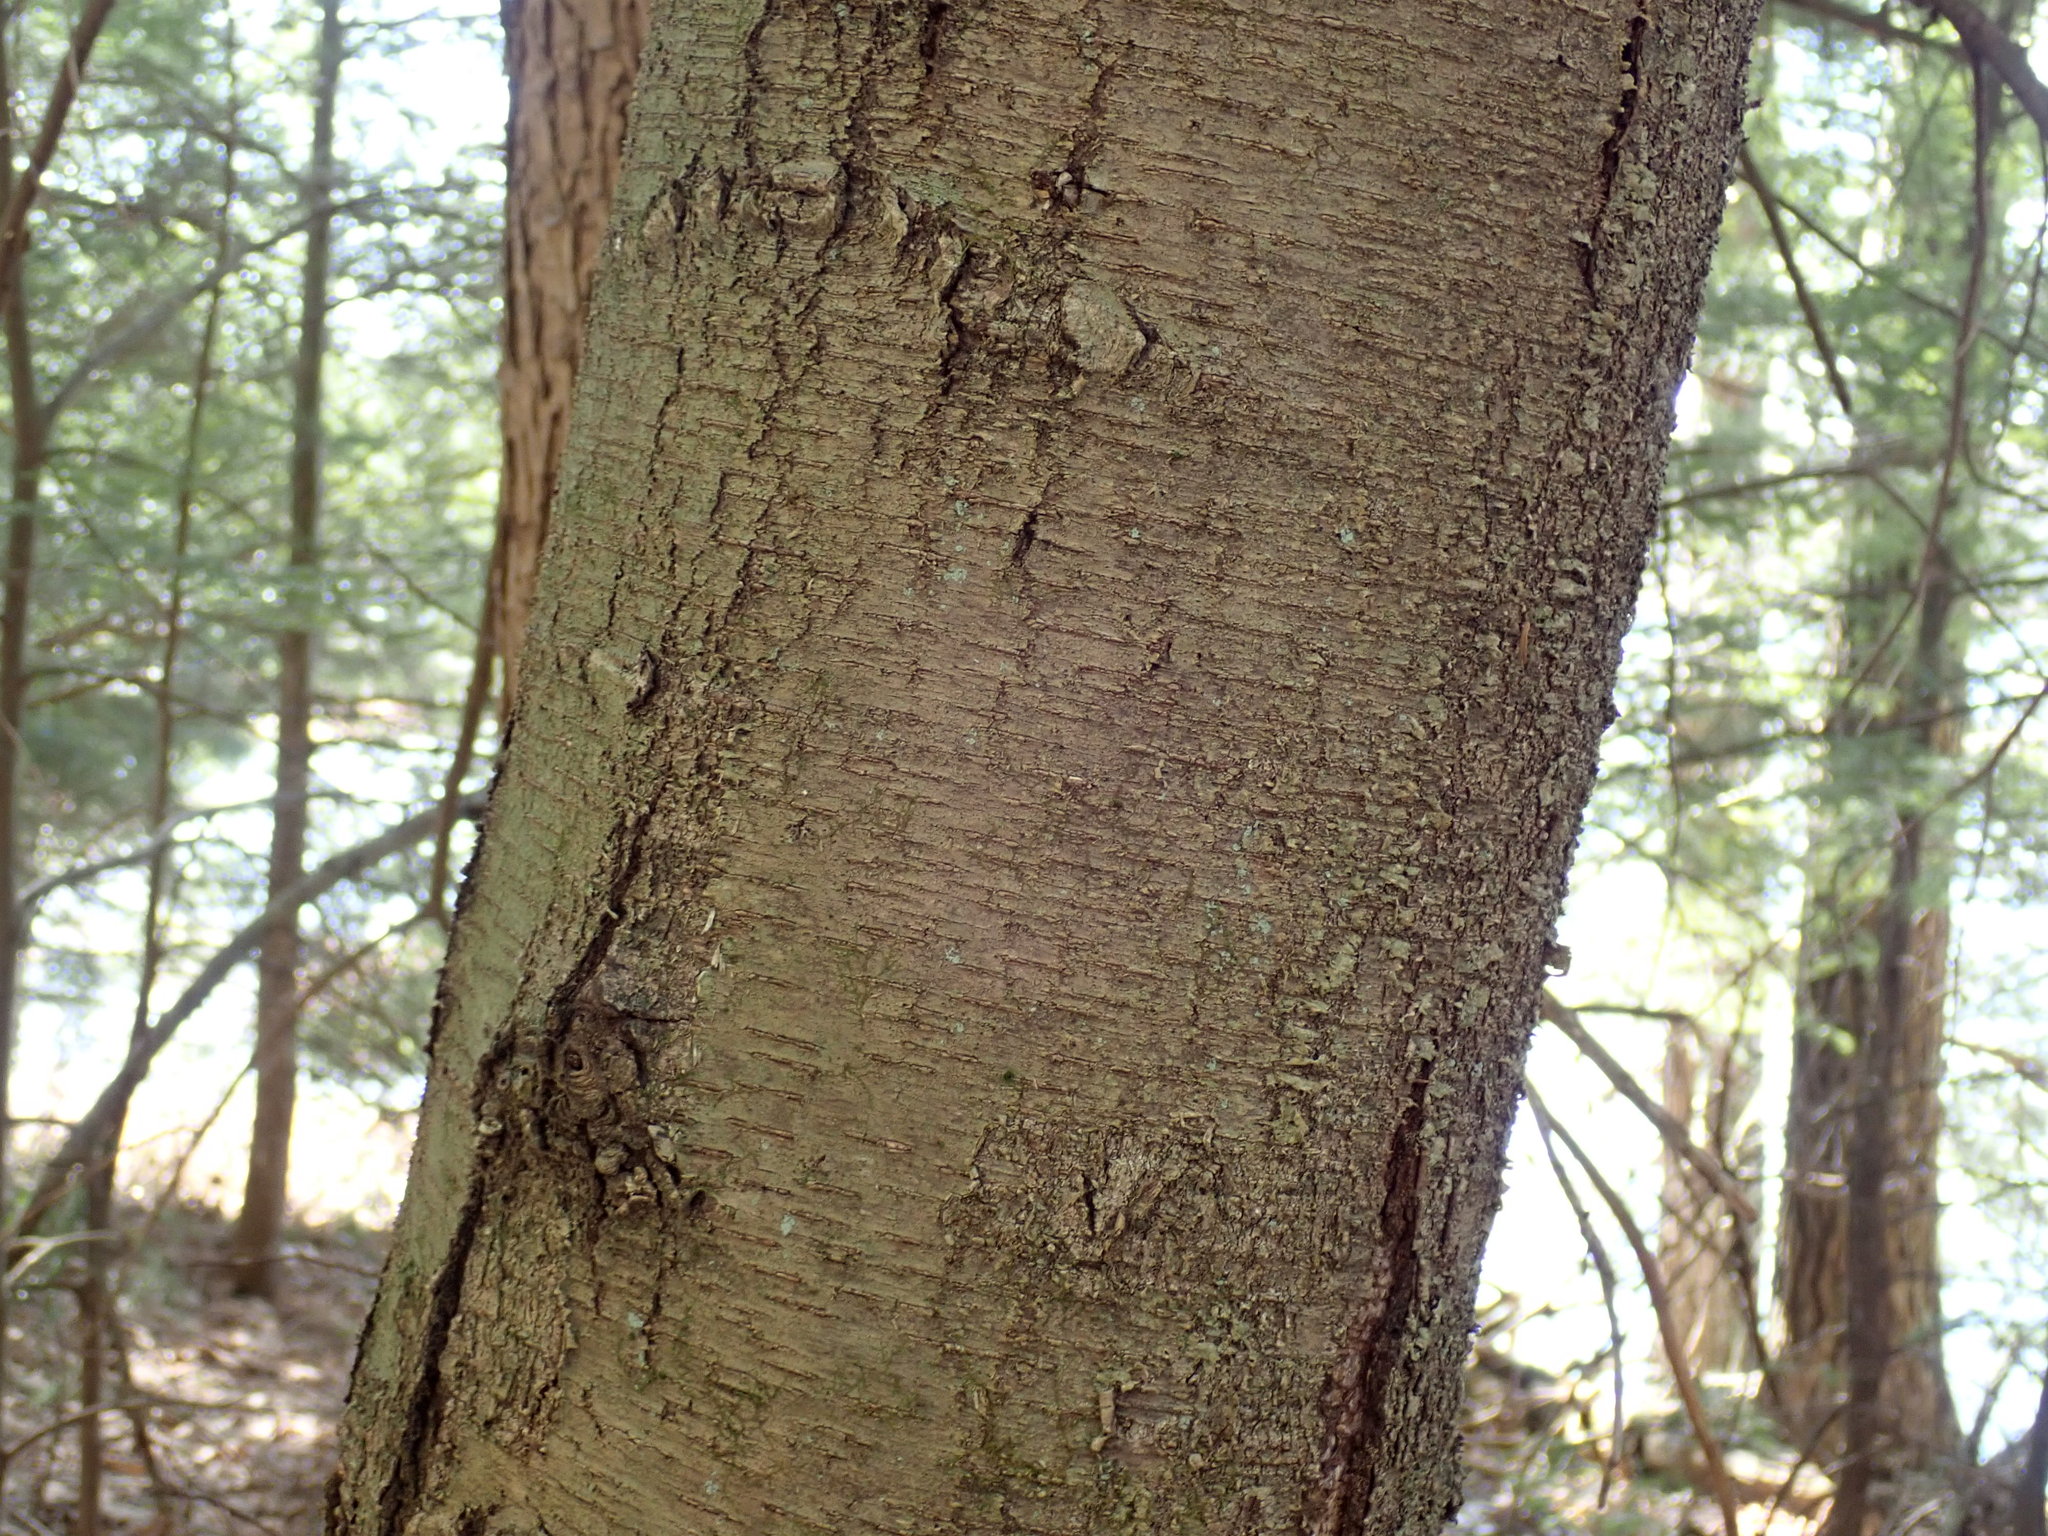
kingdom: Plantae
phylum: Tracheophyta
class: Magnoliopsida
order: Fagales
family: Betulaceae
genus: Betula
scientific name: Betula lenta
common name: Black birch
